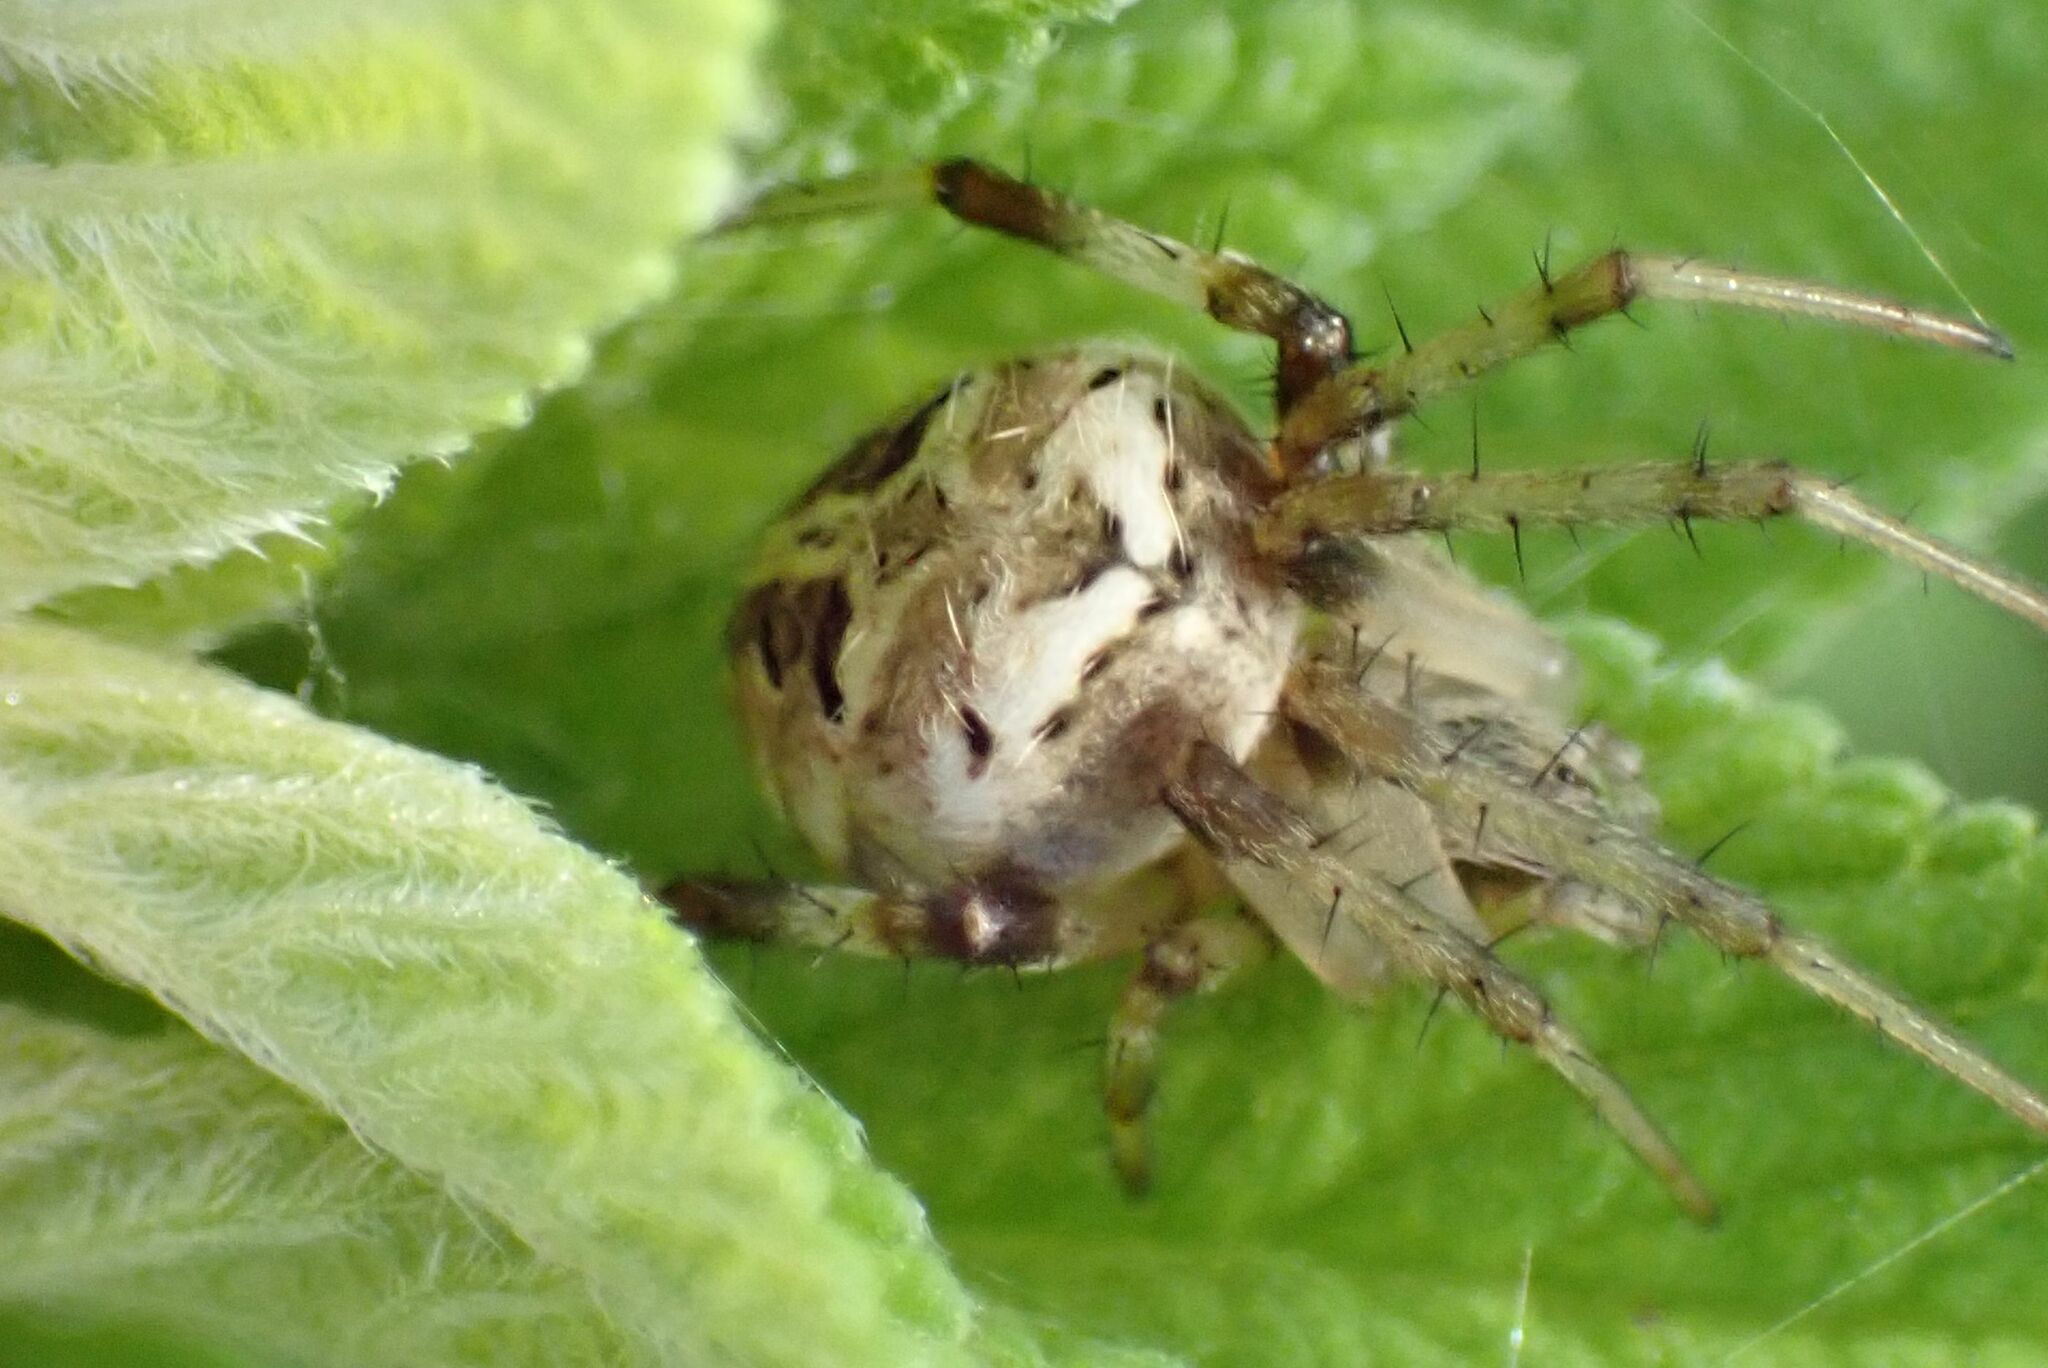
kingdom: Animalia
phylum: Arthropoda
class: Arachnida
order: Araneae
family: Araneidae
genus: Neoscona
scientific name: Neoscona theisi
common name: Spider
